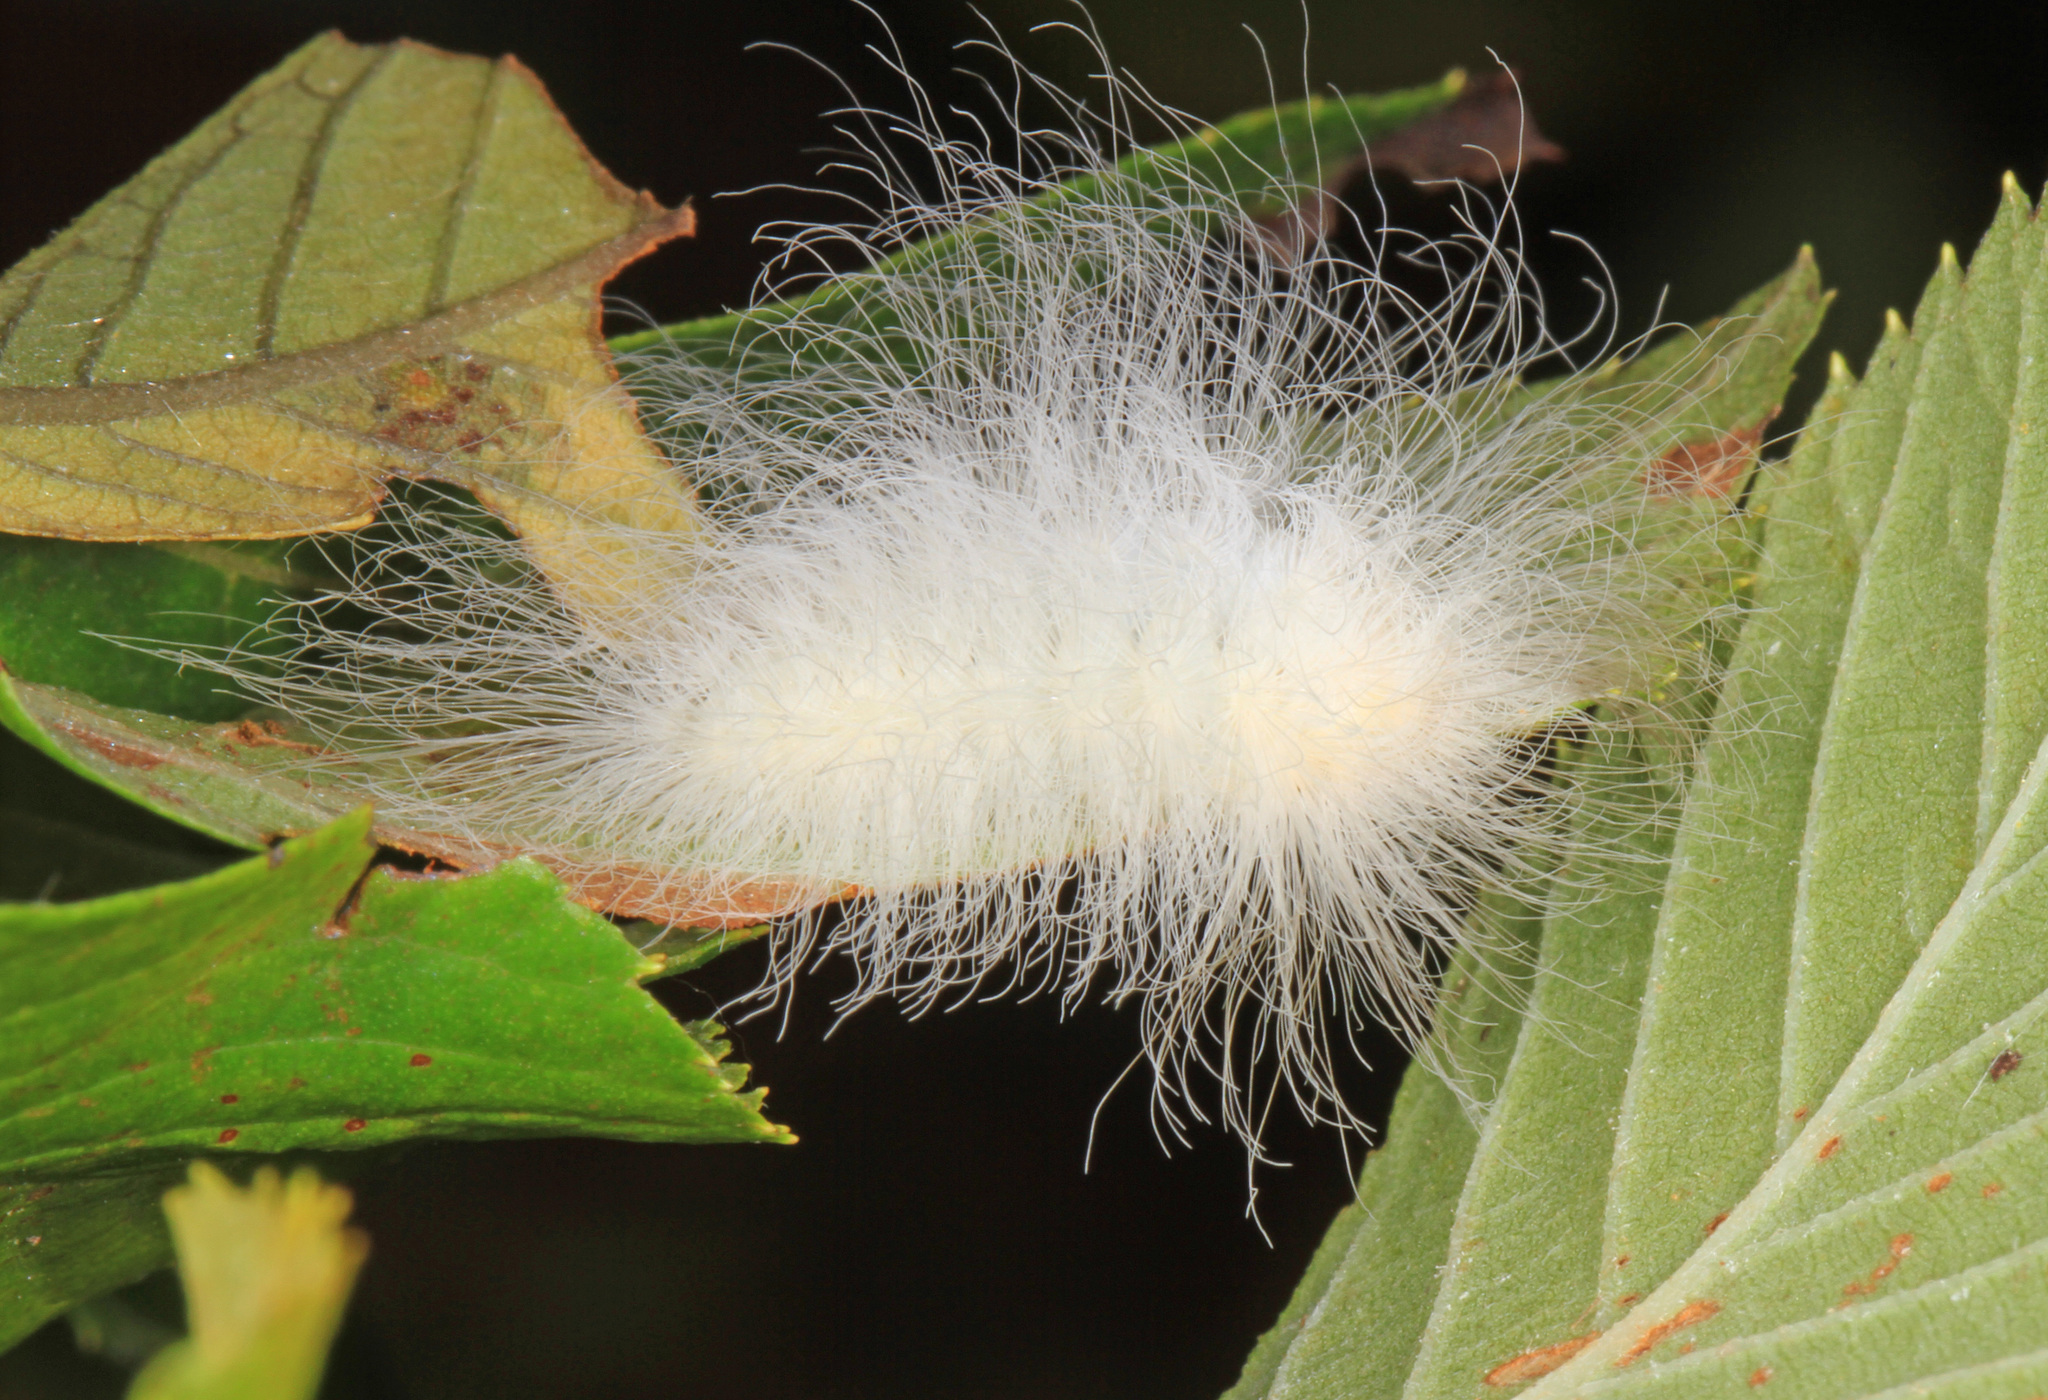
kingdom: Animalia
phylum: Arthropoda
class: Insecta
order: Lepidoptera
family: Megalopygidae
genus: Megalopyge
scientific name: Megalopyge crispata
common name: Black-waved flannel moth
